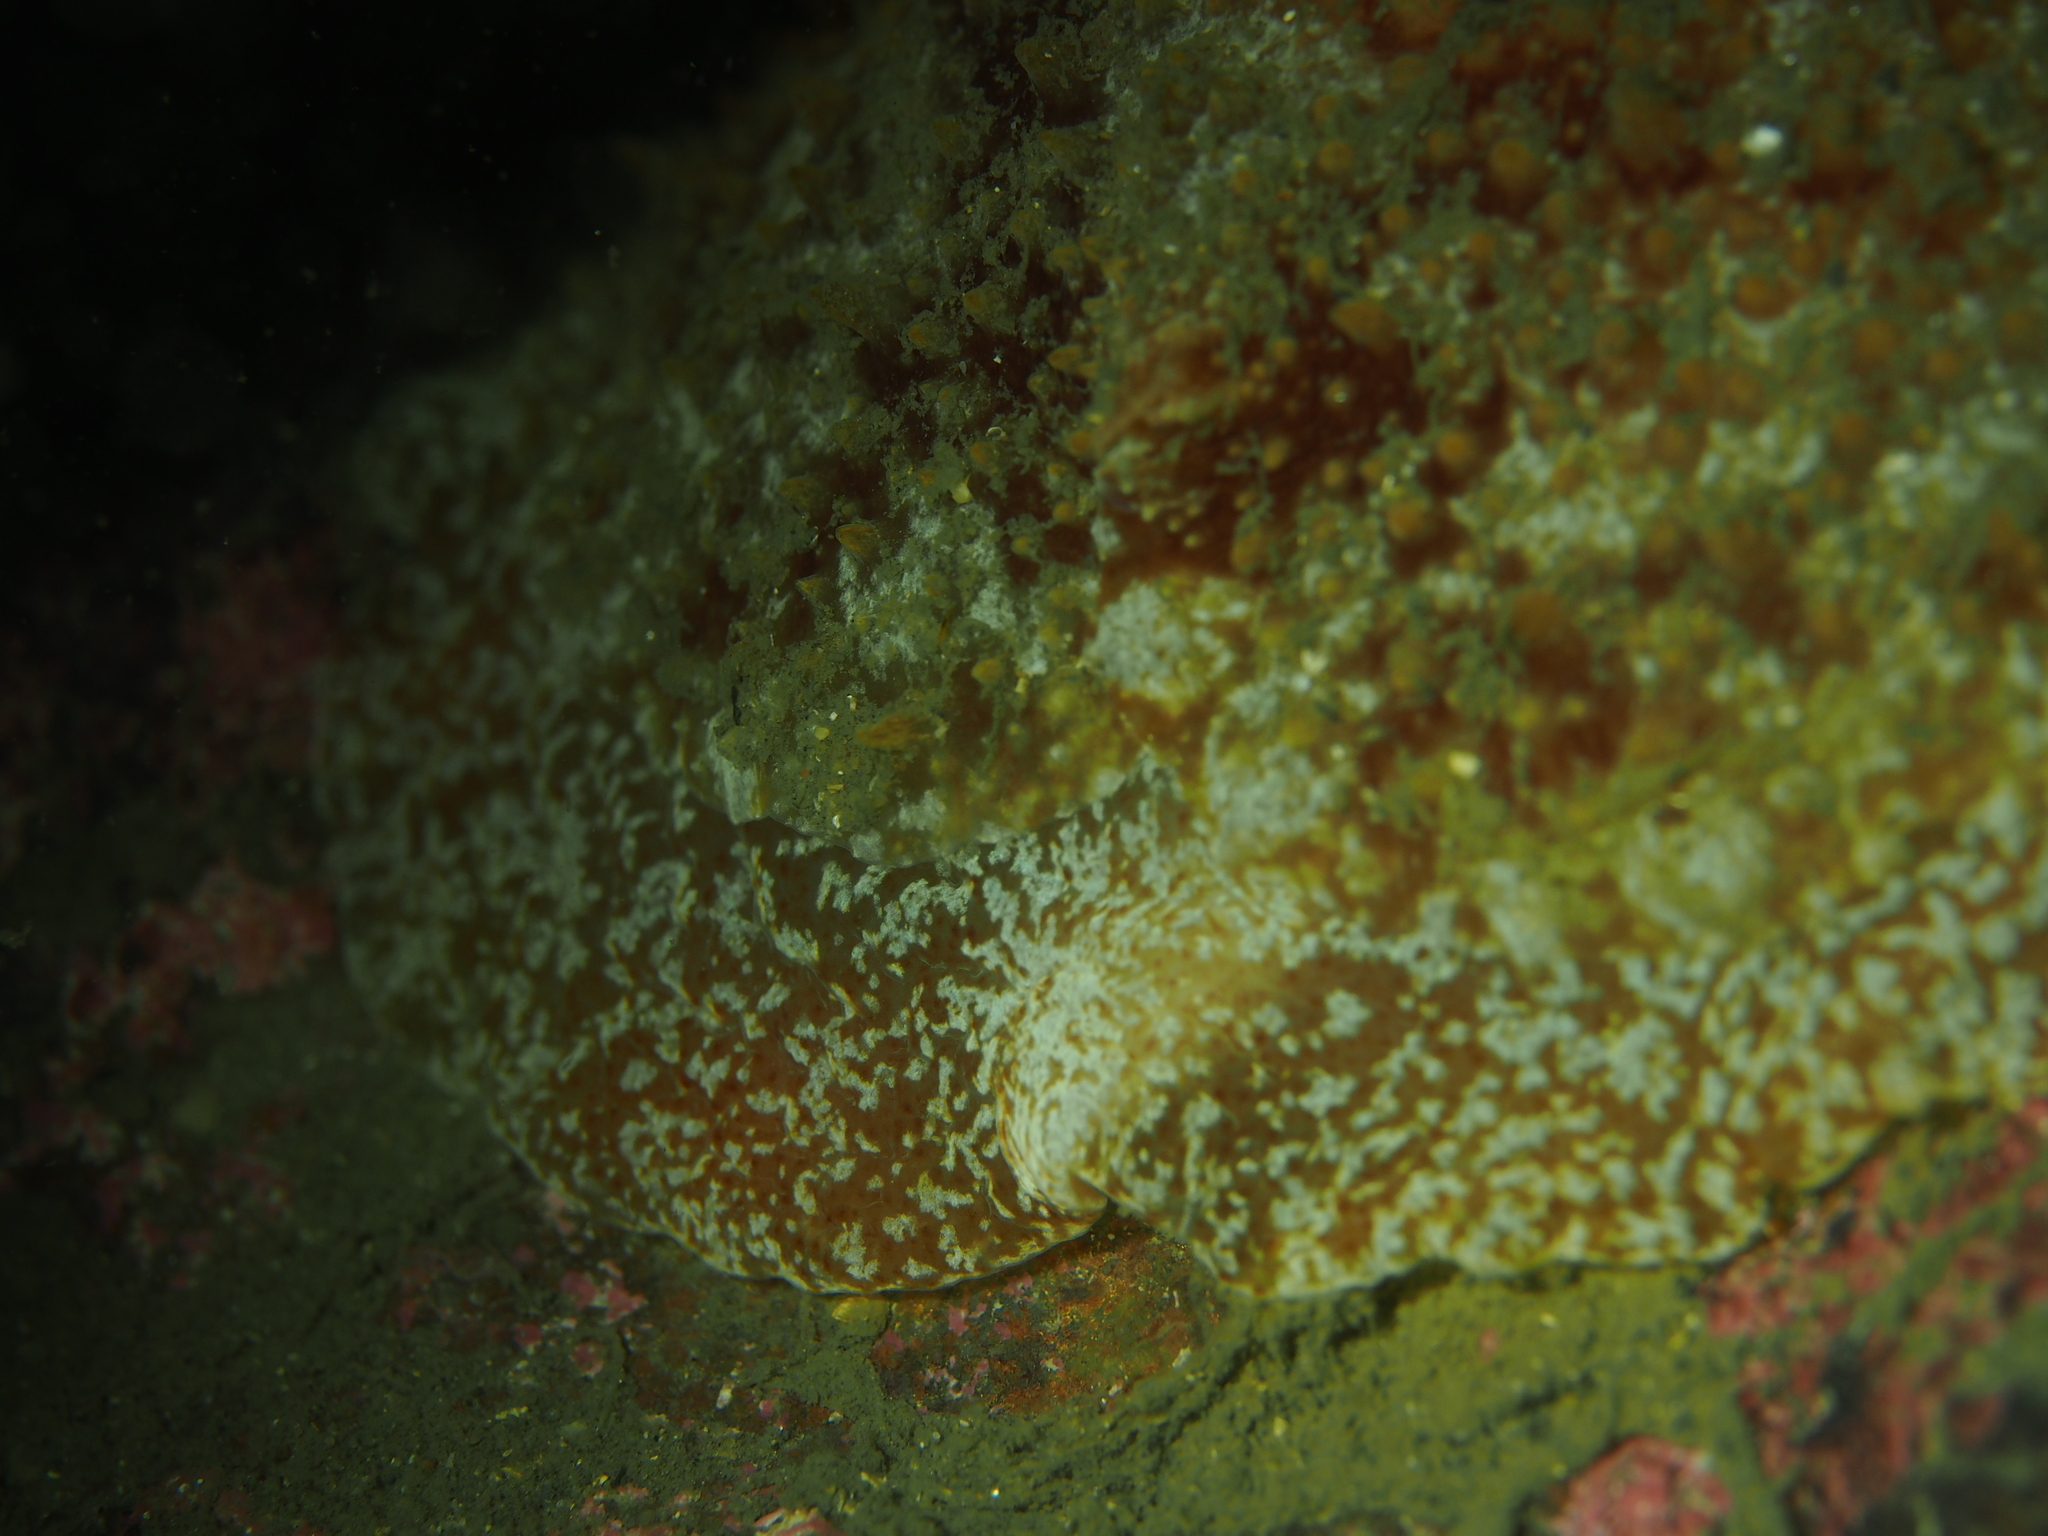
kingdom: Animalia
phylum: Mollusca
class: Gastropoda
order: Pleurobranchida
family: Pleurobranchidae
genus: Pleurobranchus
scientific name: Pleurobranchus membranaceus
